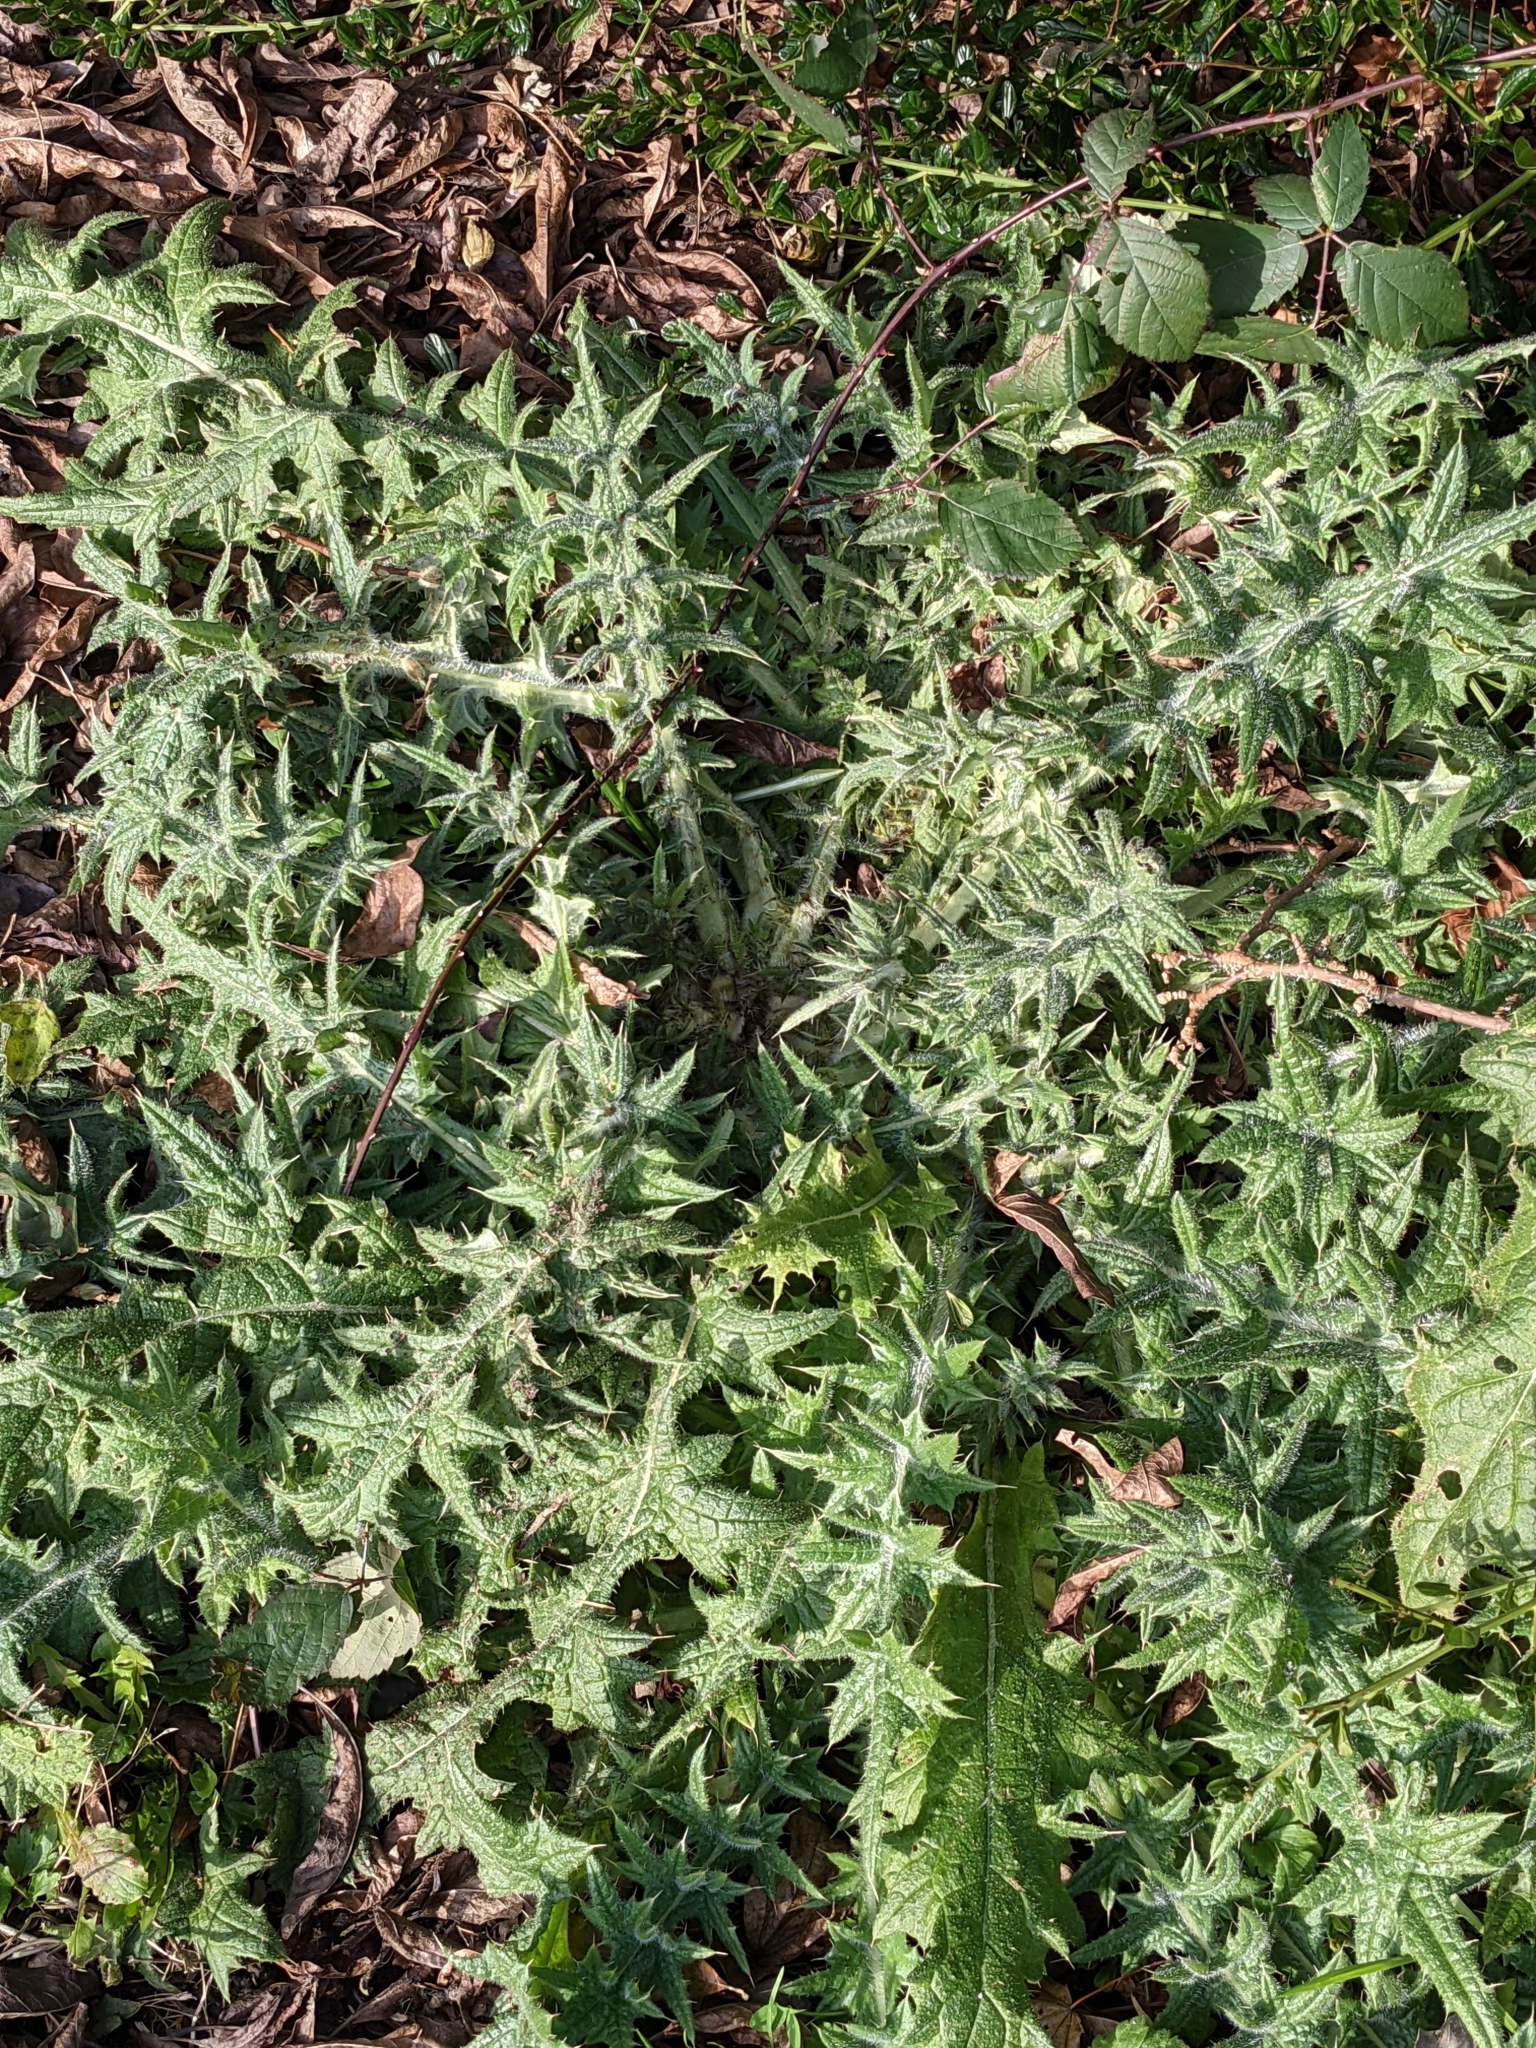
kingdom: Plantae
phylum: Tracheophyta
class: Magnoliopsida
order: Asterales
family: Asteraceae
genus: Cirsium
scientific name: Cirsium vulgare
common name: Bull thistle
